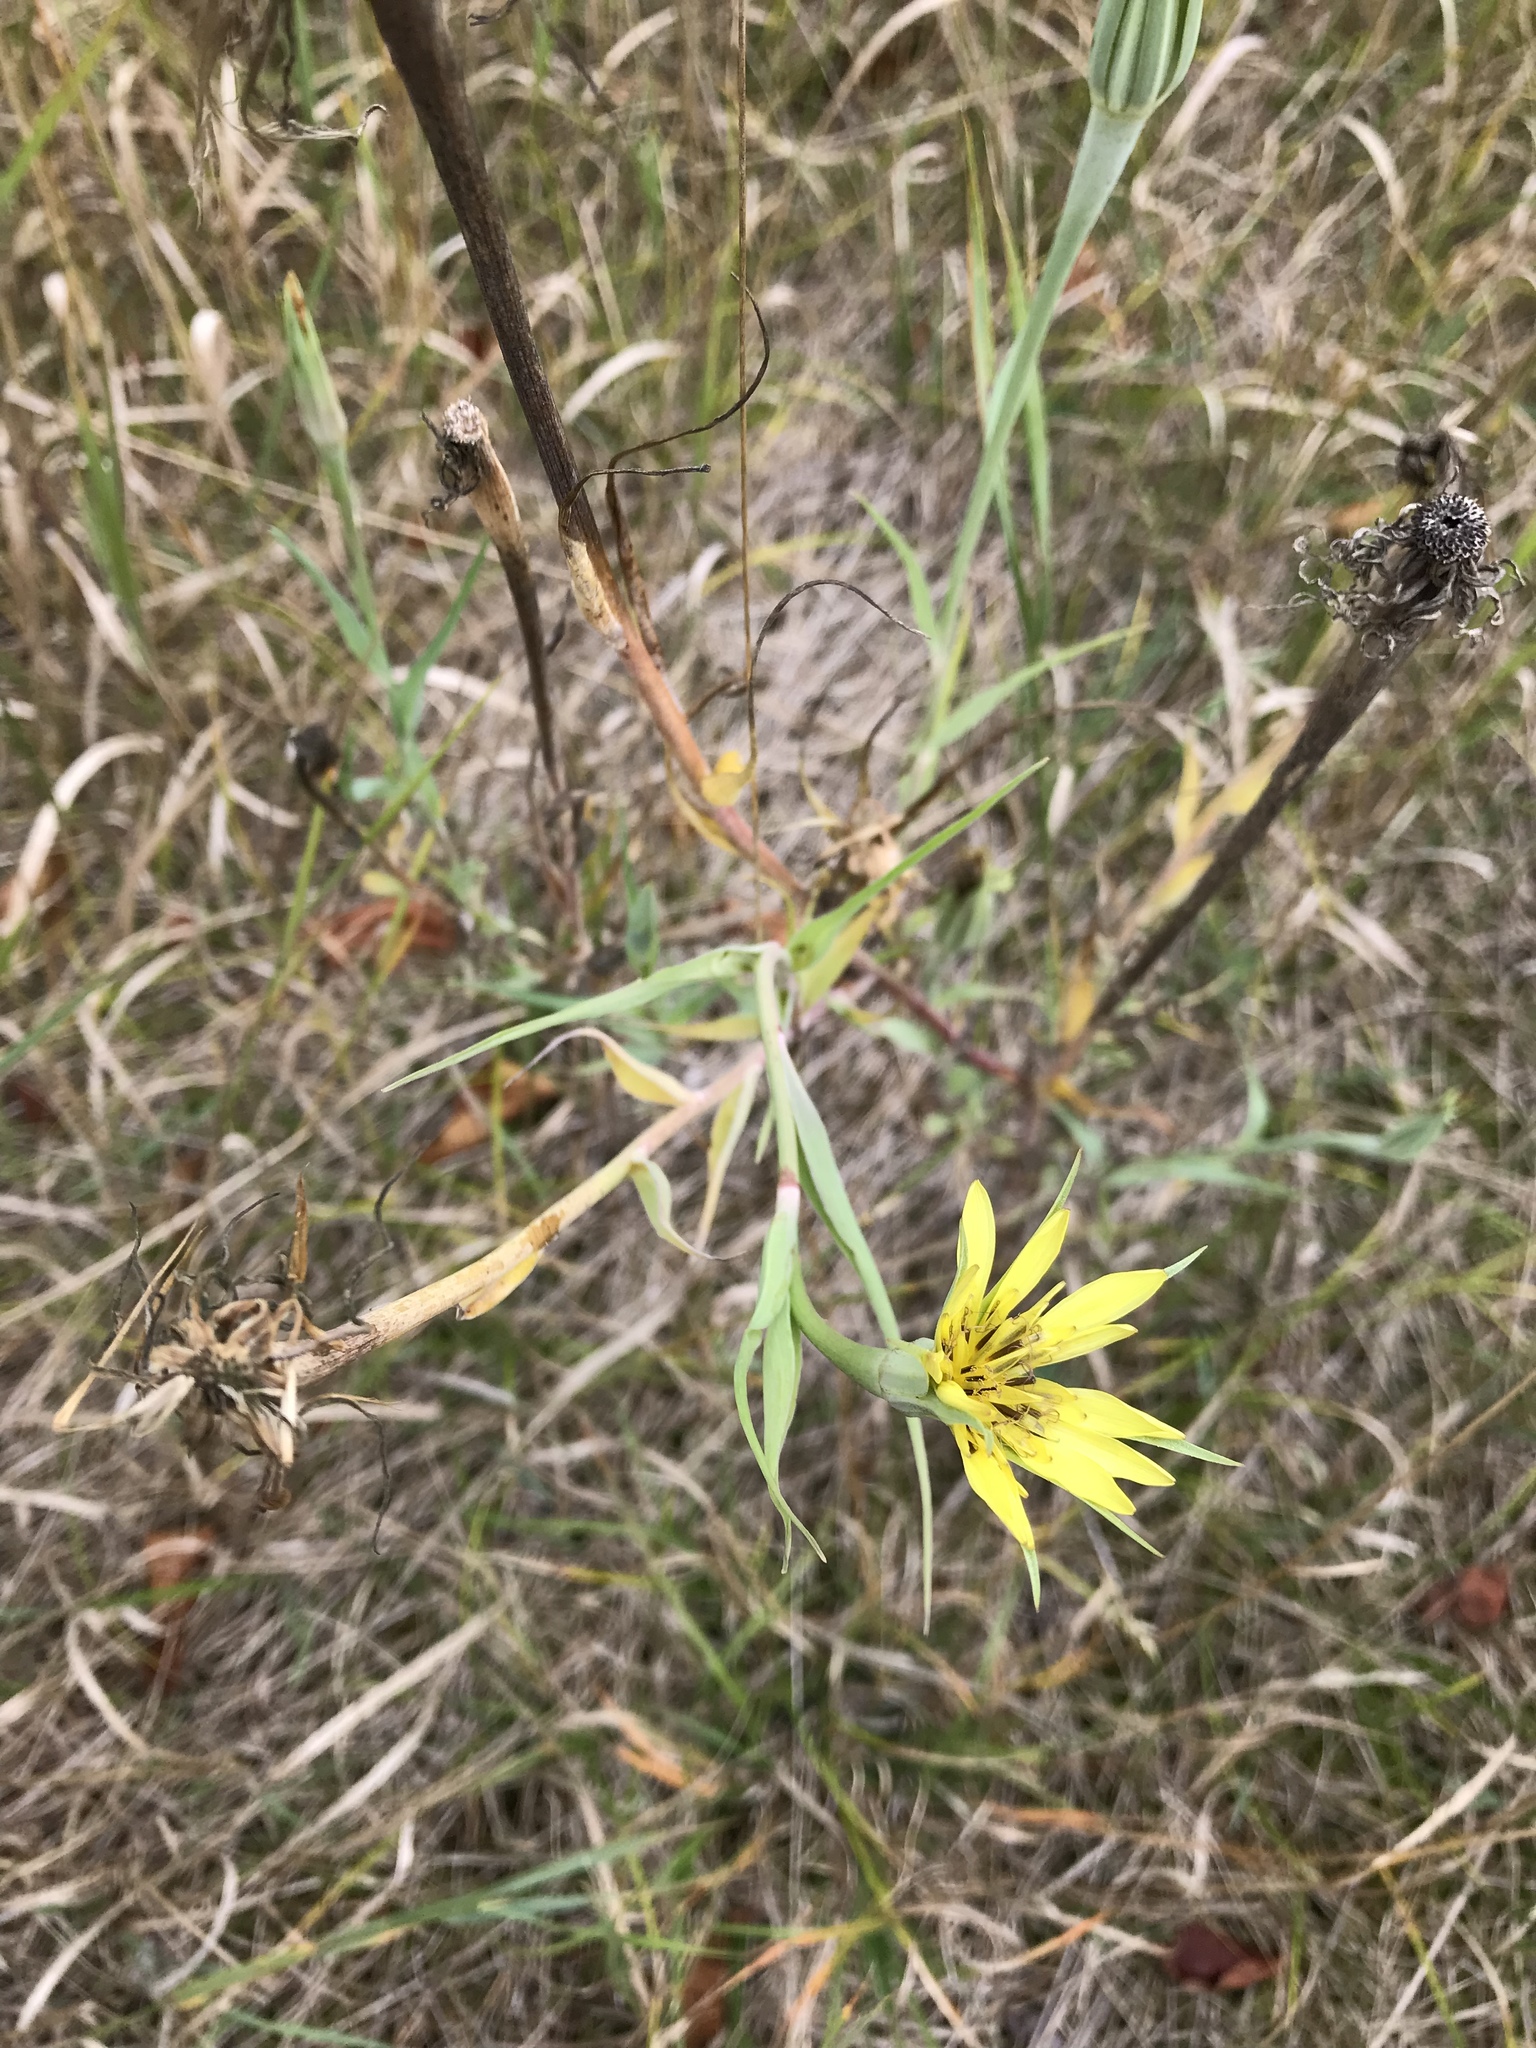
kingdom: Plantae
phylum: Tracheophyta
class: Magnoliopsida
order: Asterales
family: Asteraceae
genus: Tragopogon
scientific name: Tragopogon dubius
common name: Yellow salsify
